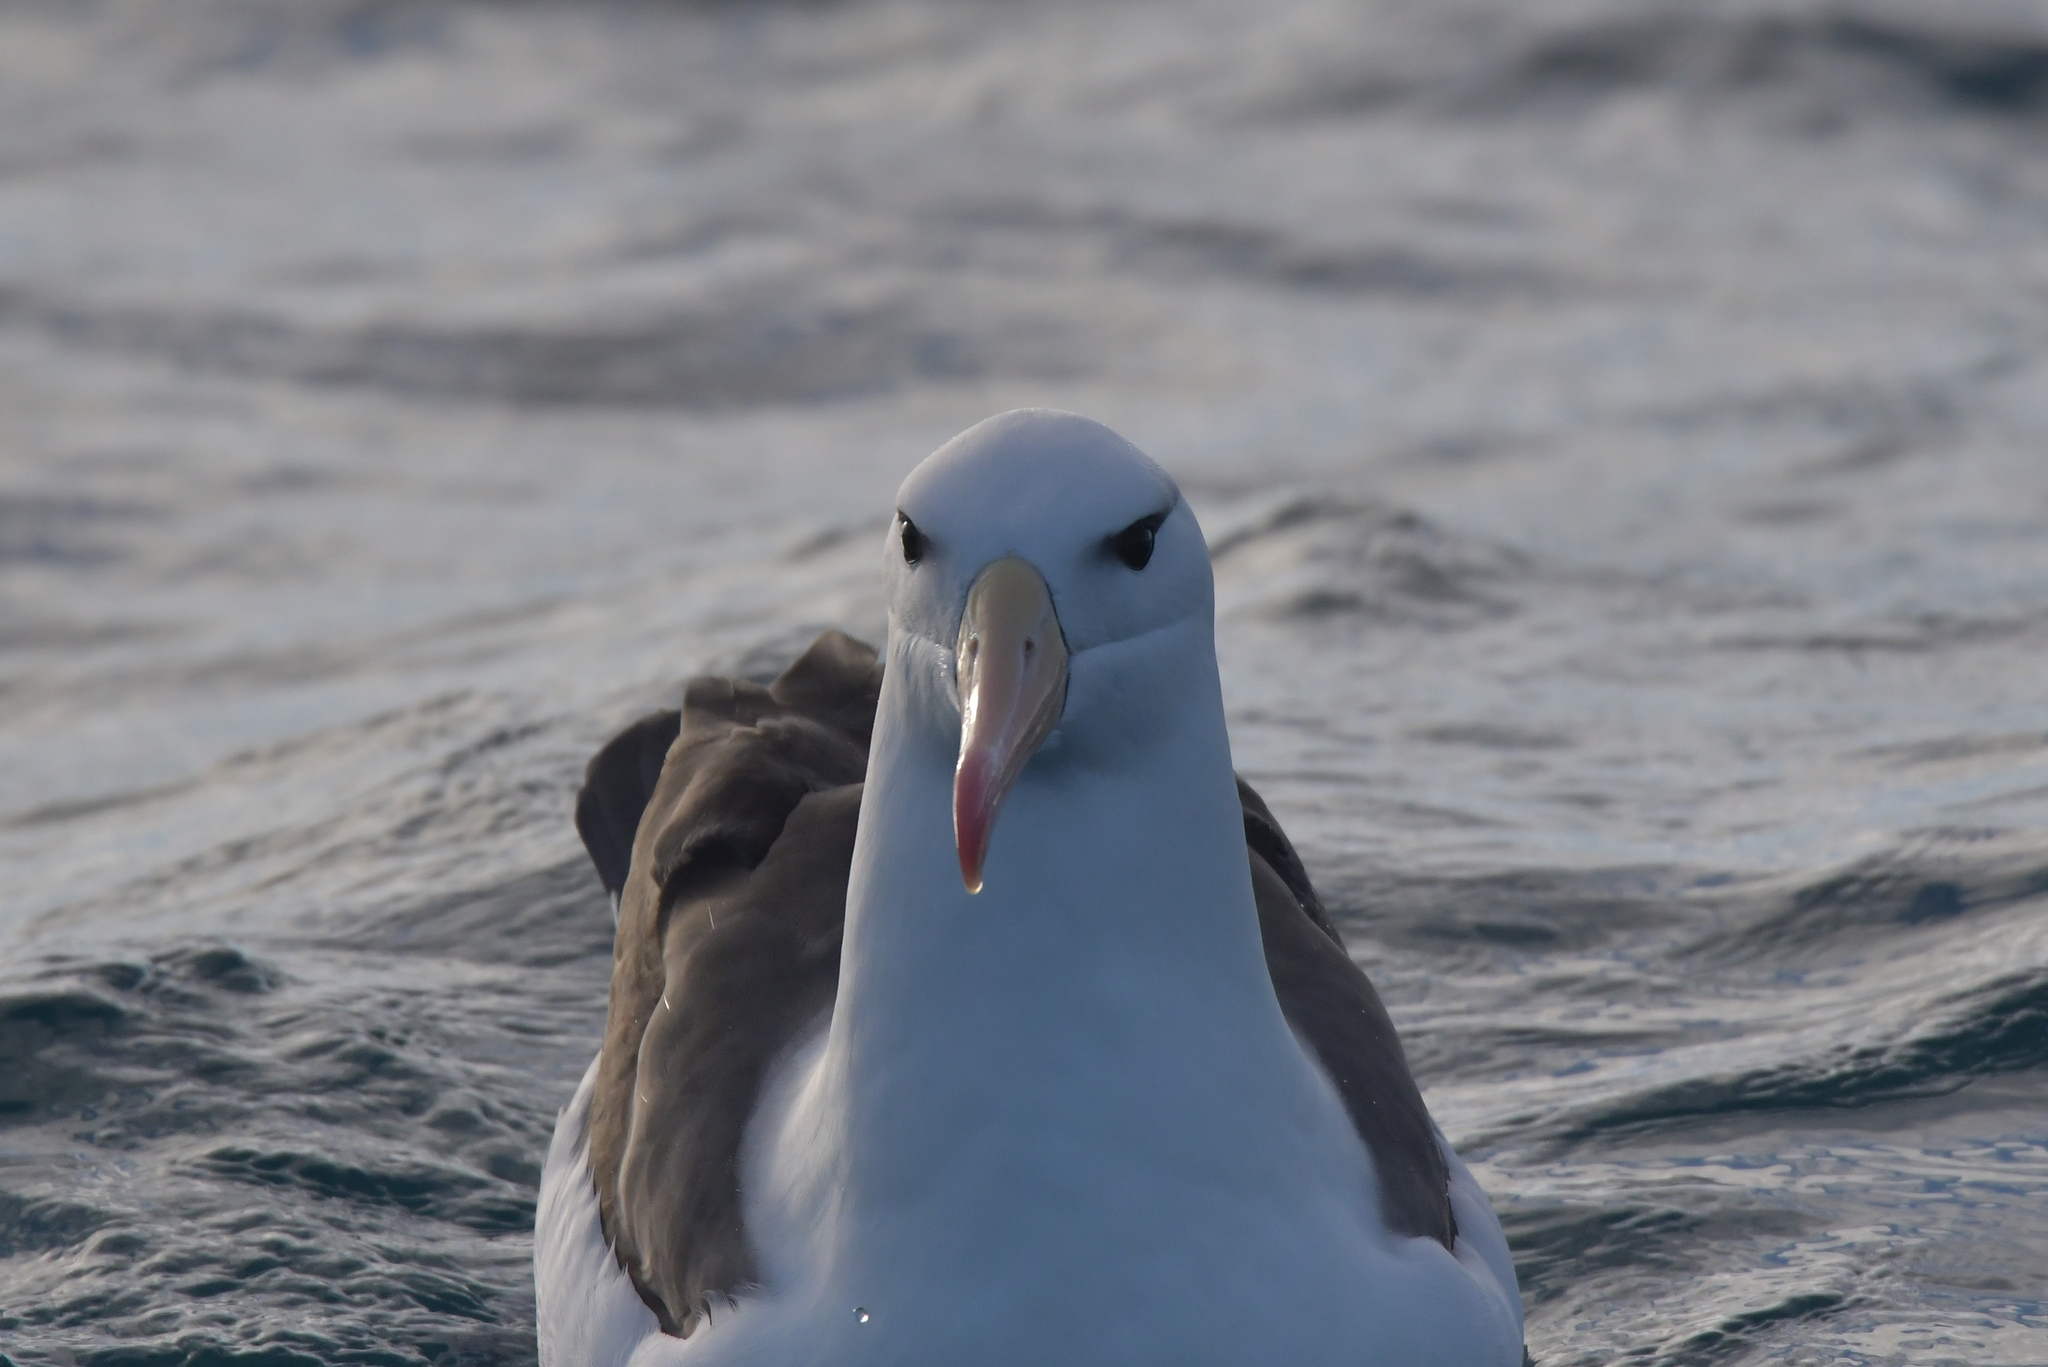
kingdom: Animalia
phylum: Chordata
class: Aves
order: Procellariiformes
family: Diomedeidae
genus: Thalassarche
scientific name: Thalassarche melanophris
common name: Black-browed albatross
